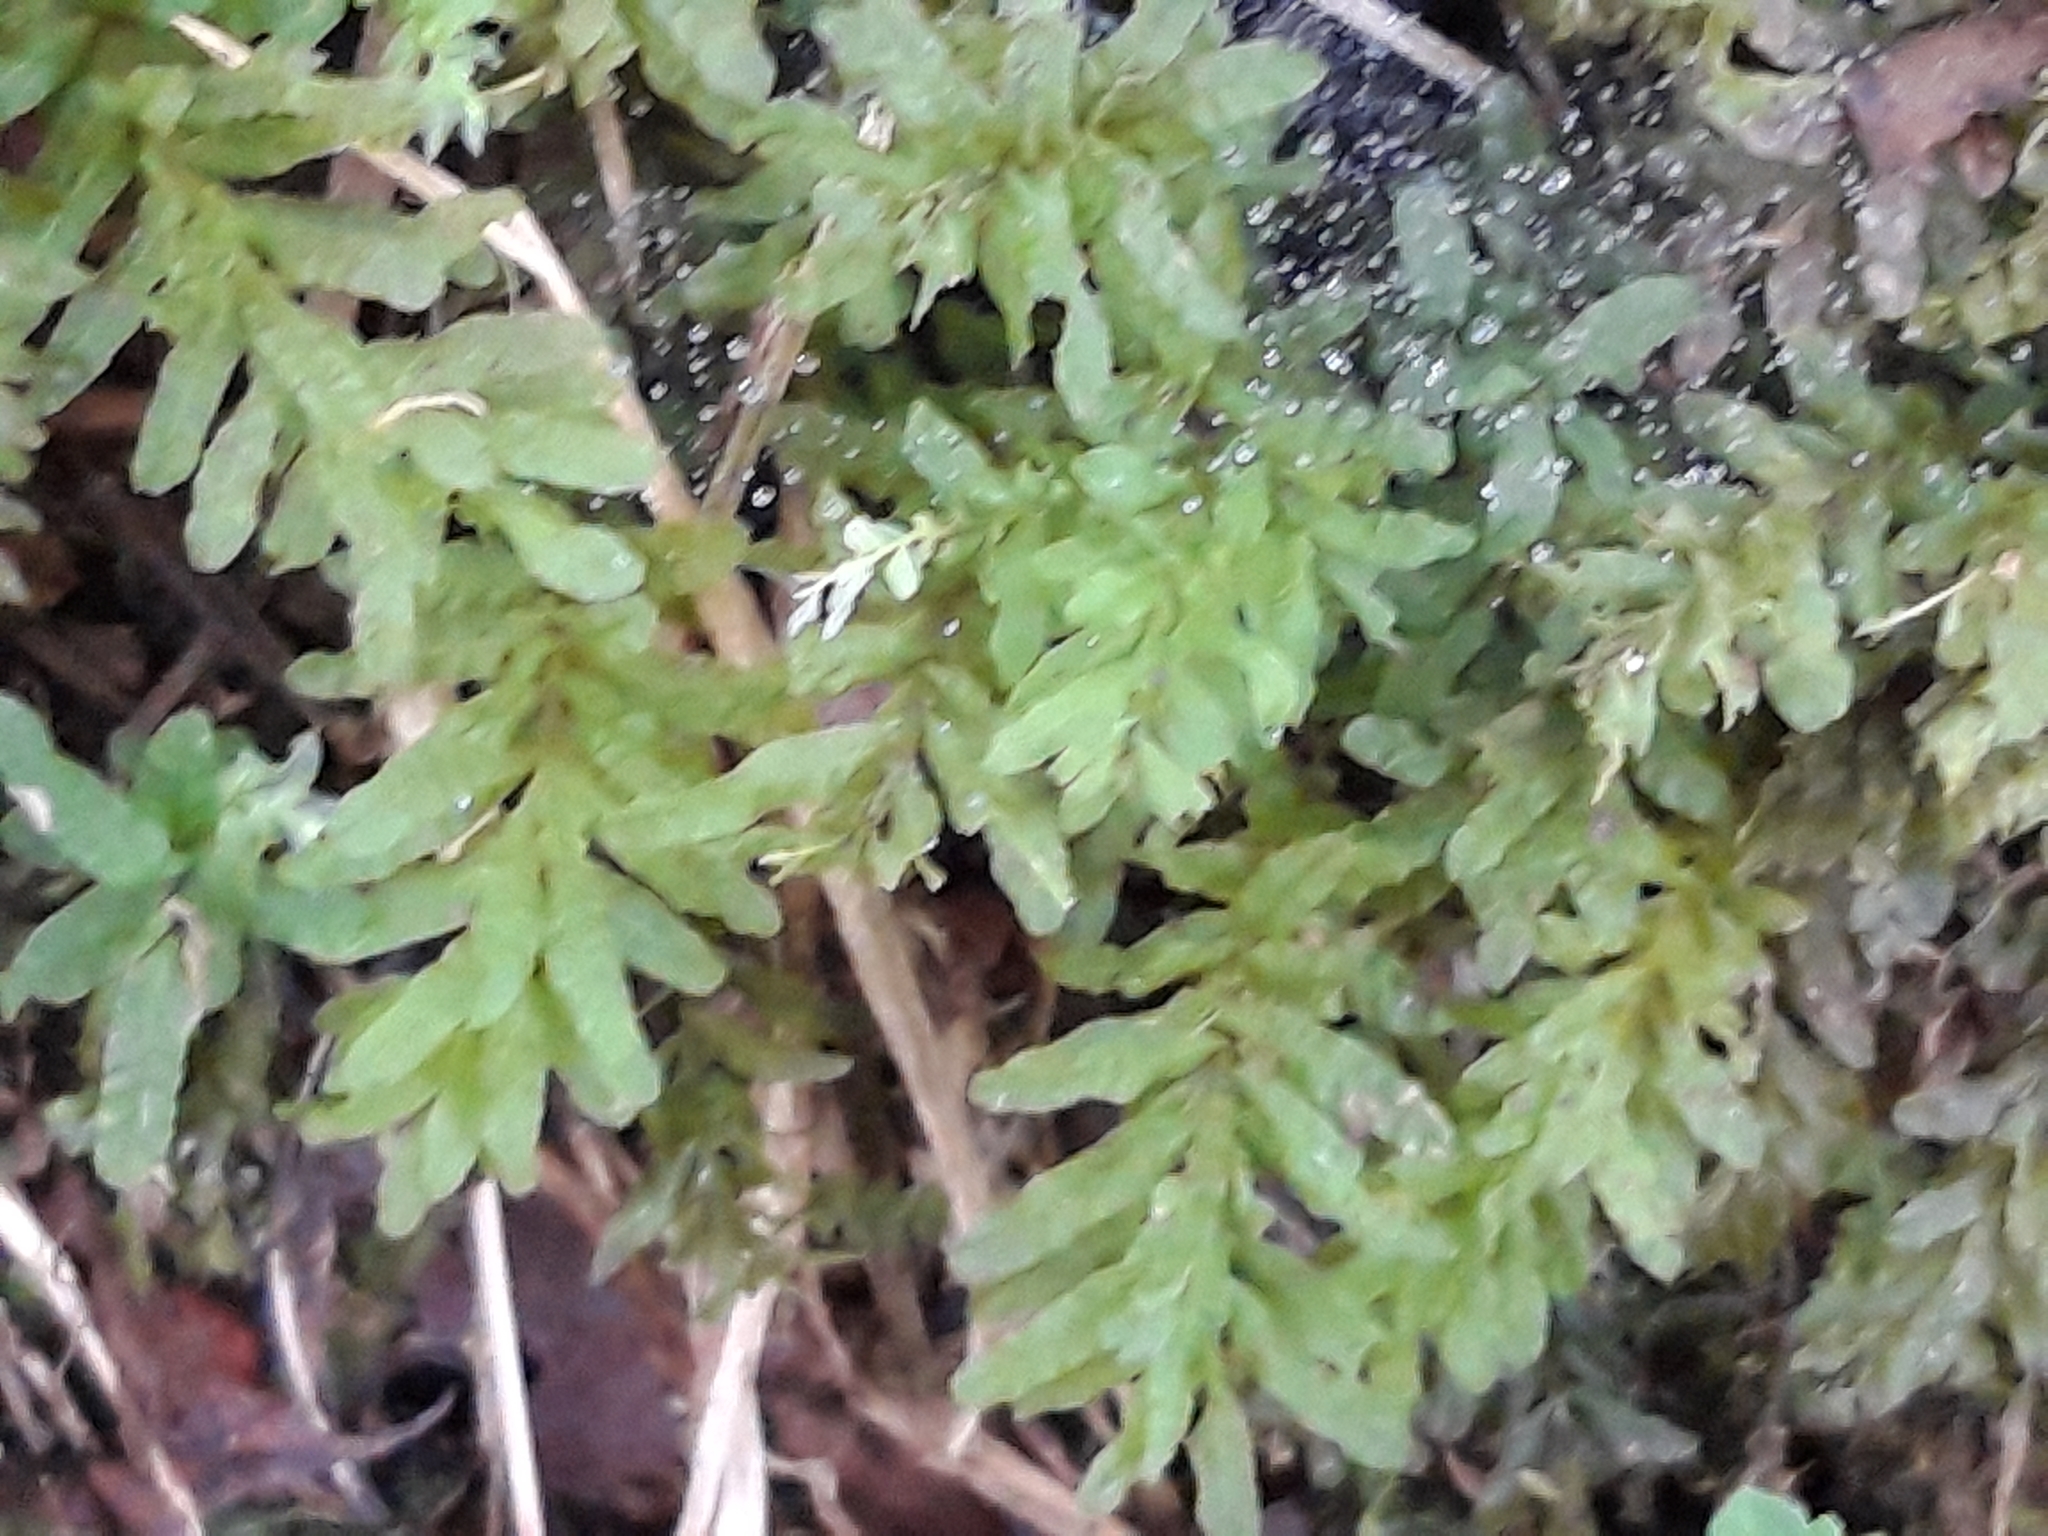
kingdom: Plantae
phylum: Bryophyta
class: Bryopsida
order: Bryales
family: Mniaceae
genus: Plagiomnium
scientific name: Plagiomnium undulatum
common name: Hart's-tongue thyme-moss
